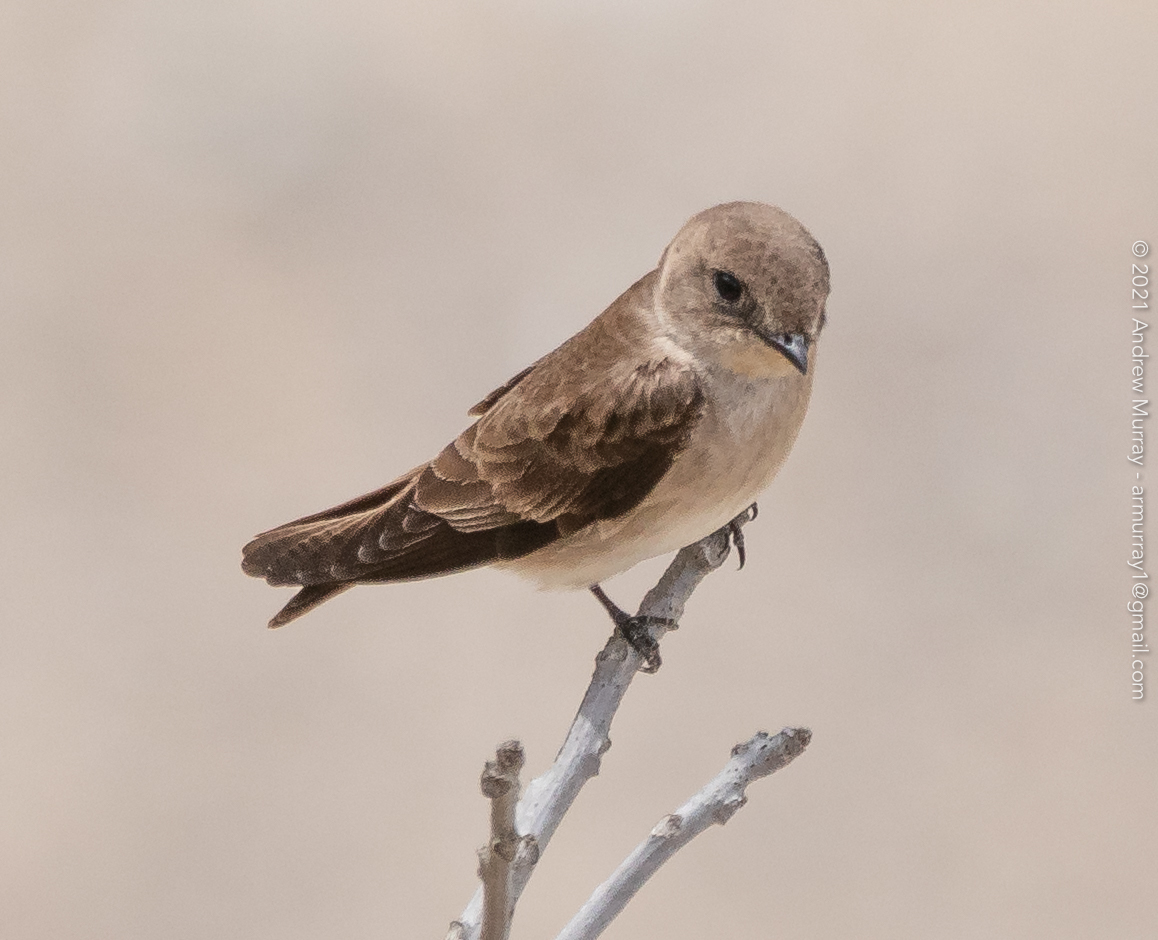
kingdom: Animalia
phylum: Chordata
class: Aves
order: Passeriformes
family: Hirundinidae
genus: Stelgidopteryx
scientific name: Stelgidopteryx serripennis
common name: Northern rough-winged swallow
